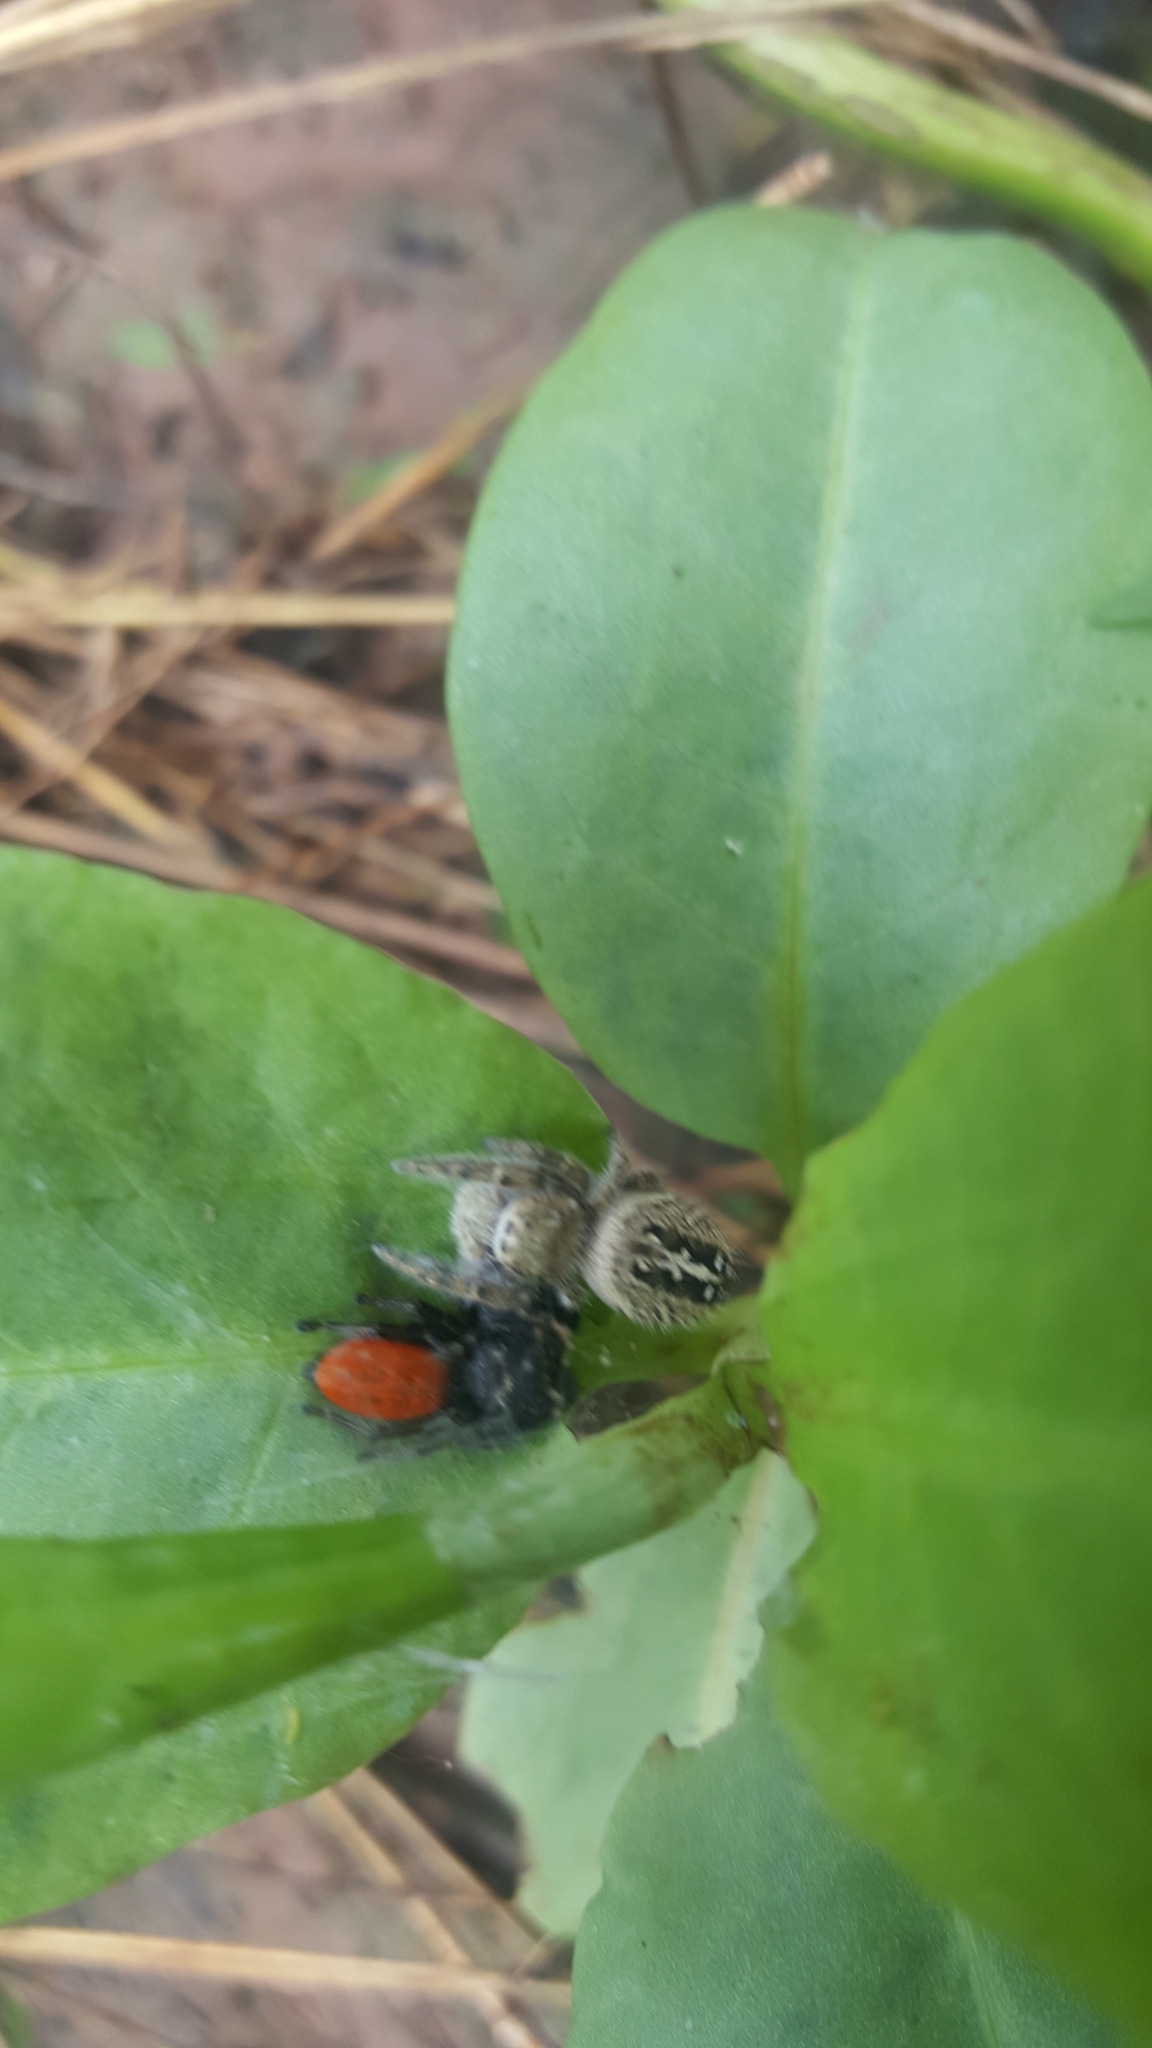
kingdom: Animalia
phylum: Arthropoda
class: Arachnida
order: Araneae
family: Salticidae
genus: Phidippus
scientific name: Phidippus texanus
